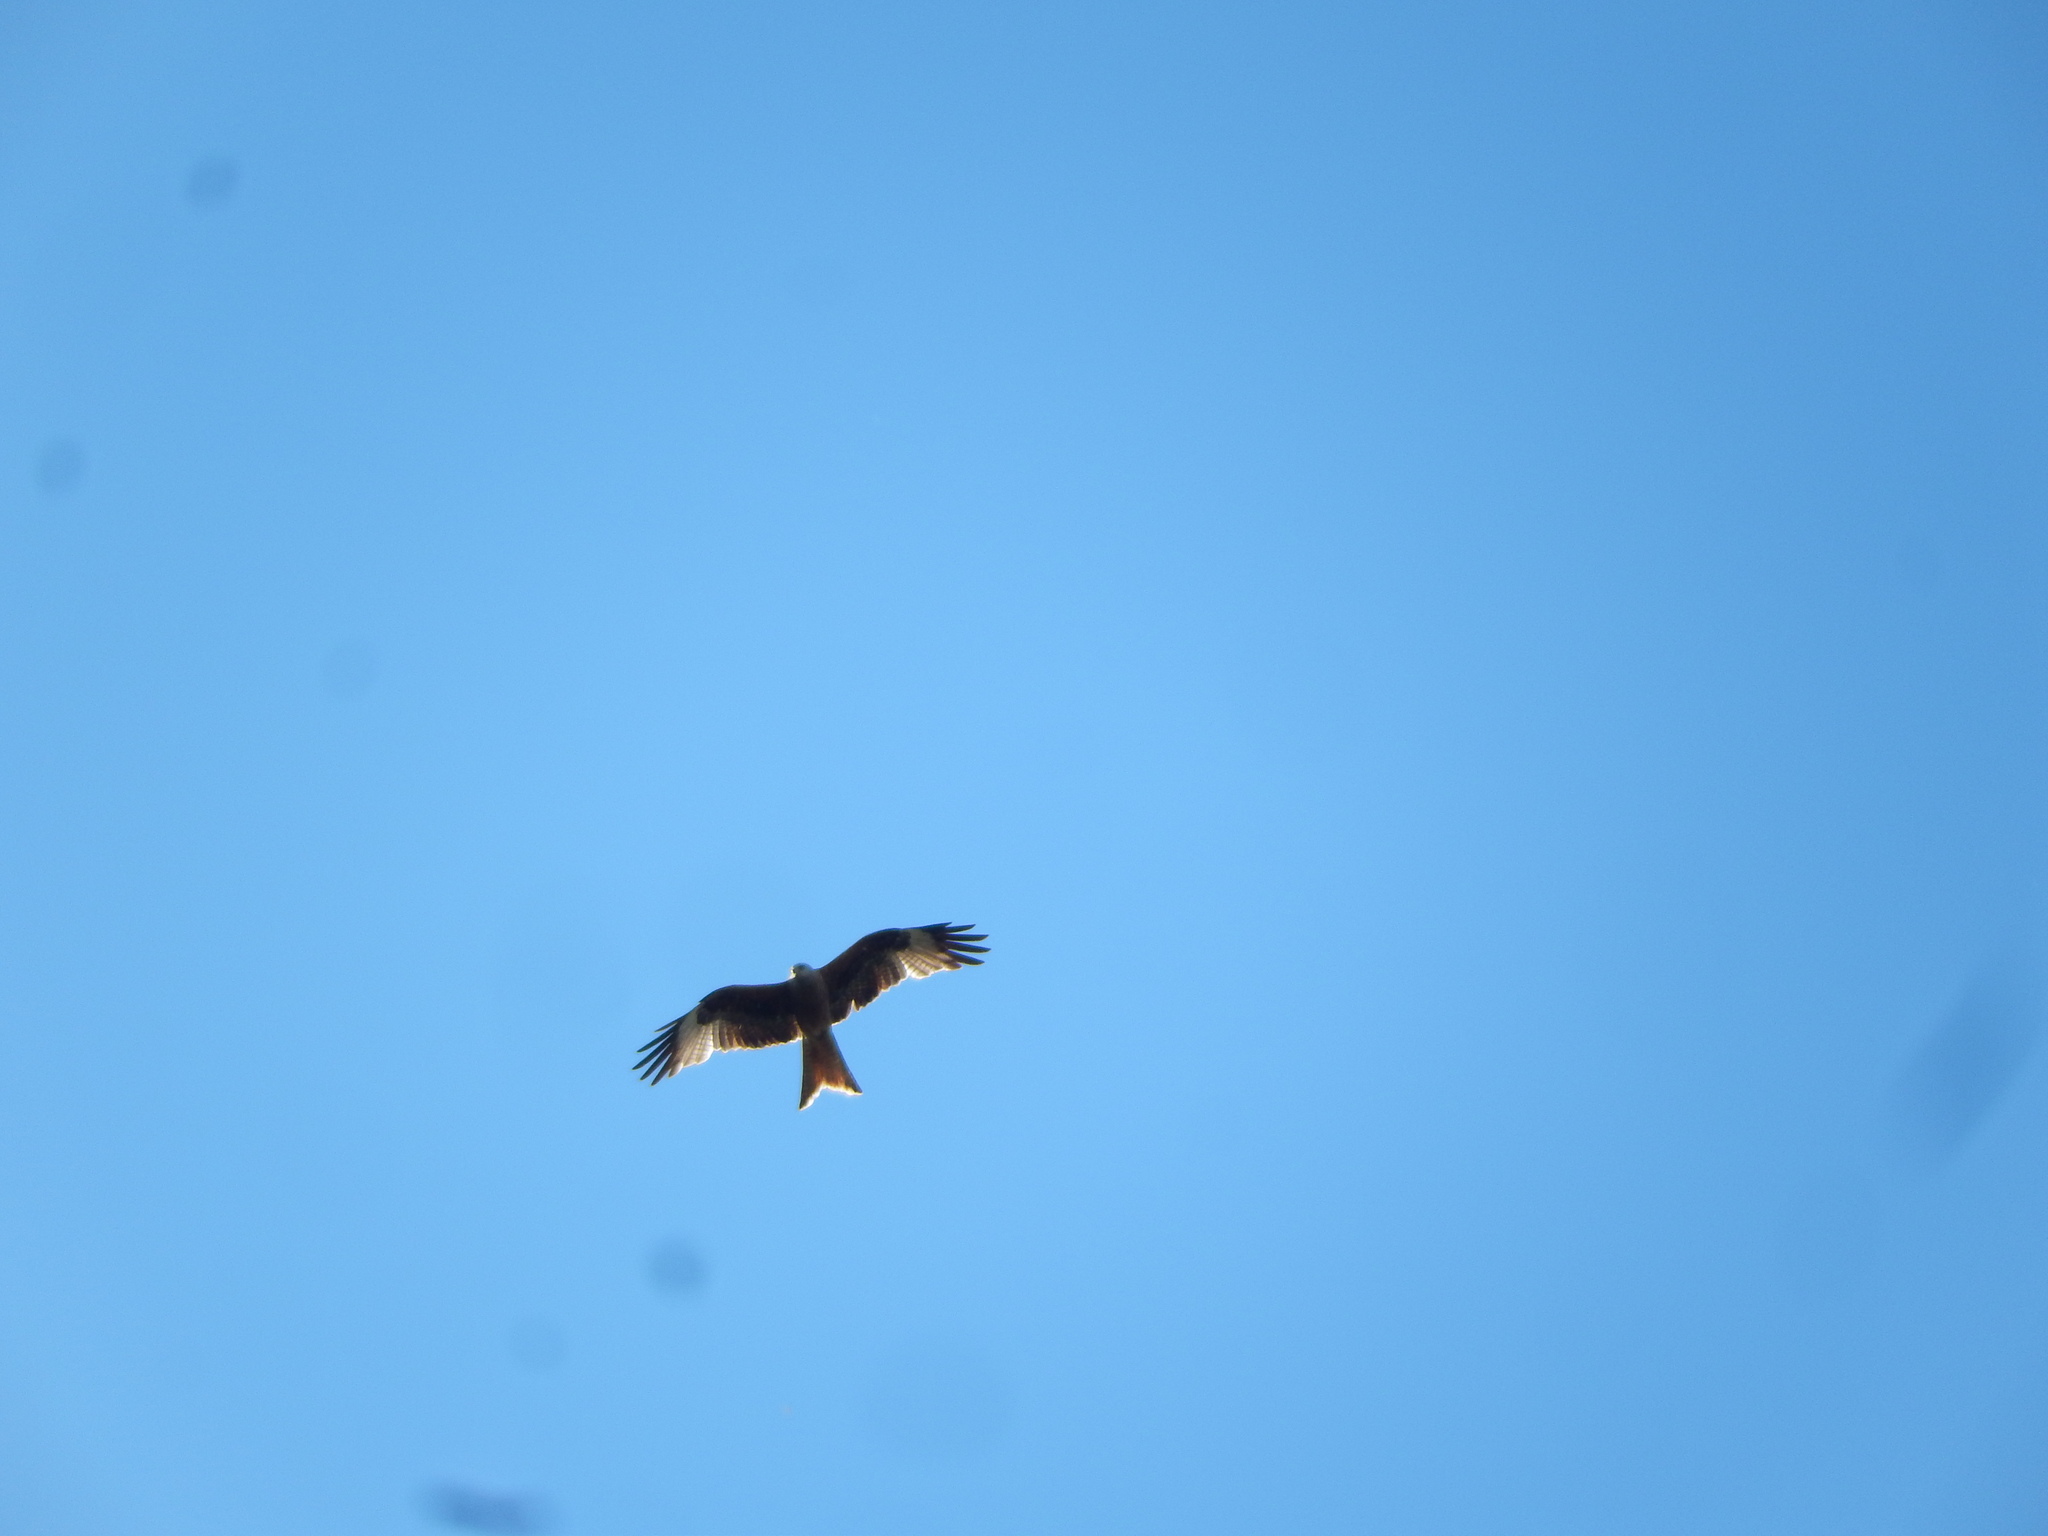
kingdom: Animalia
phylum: Chordata
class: Aves
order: Accipitriformes
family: Accipitridae
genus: Milvus
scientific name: Milvus milvus
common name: Red kite
